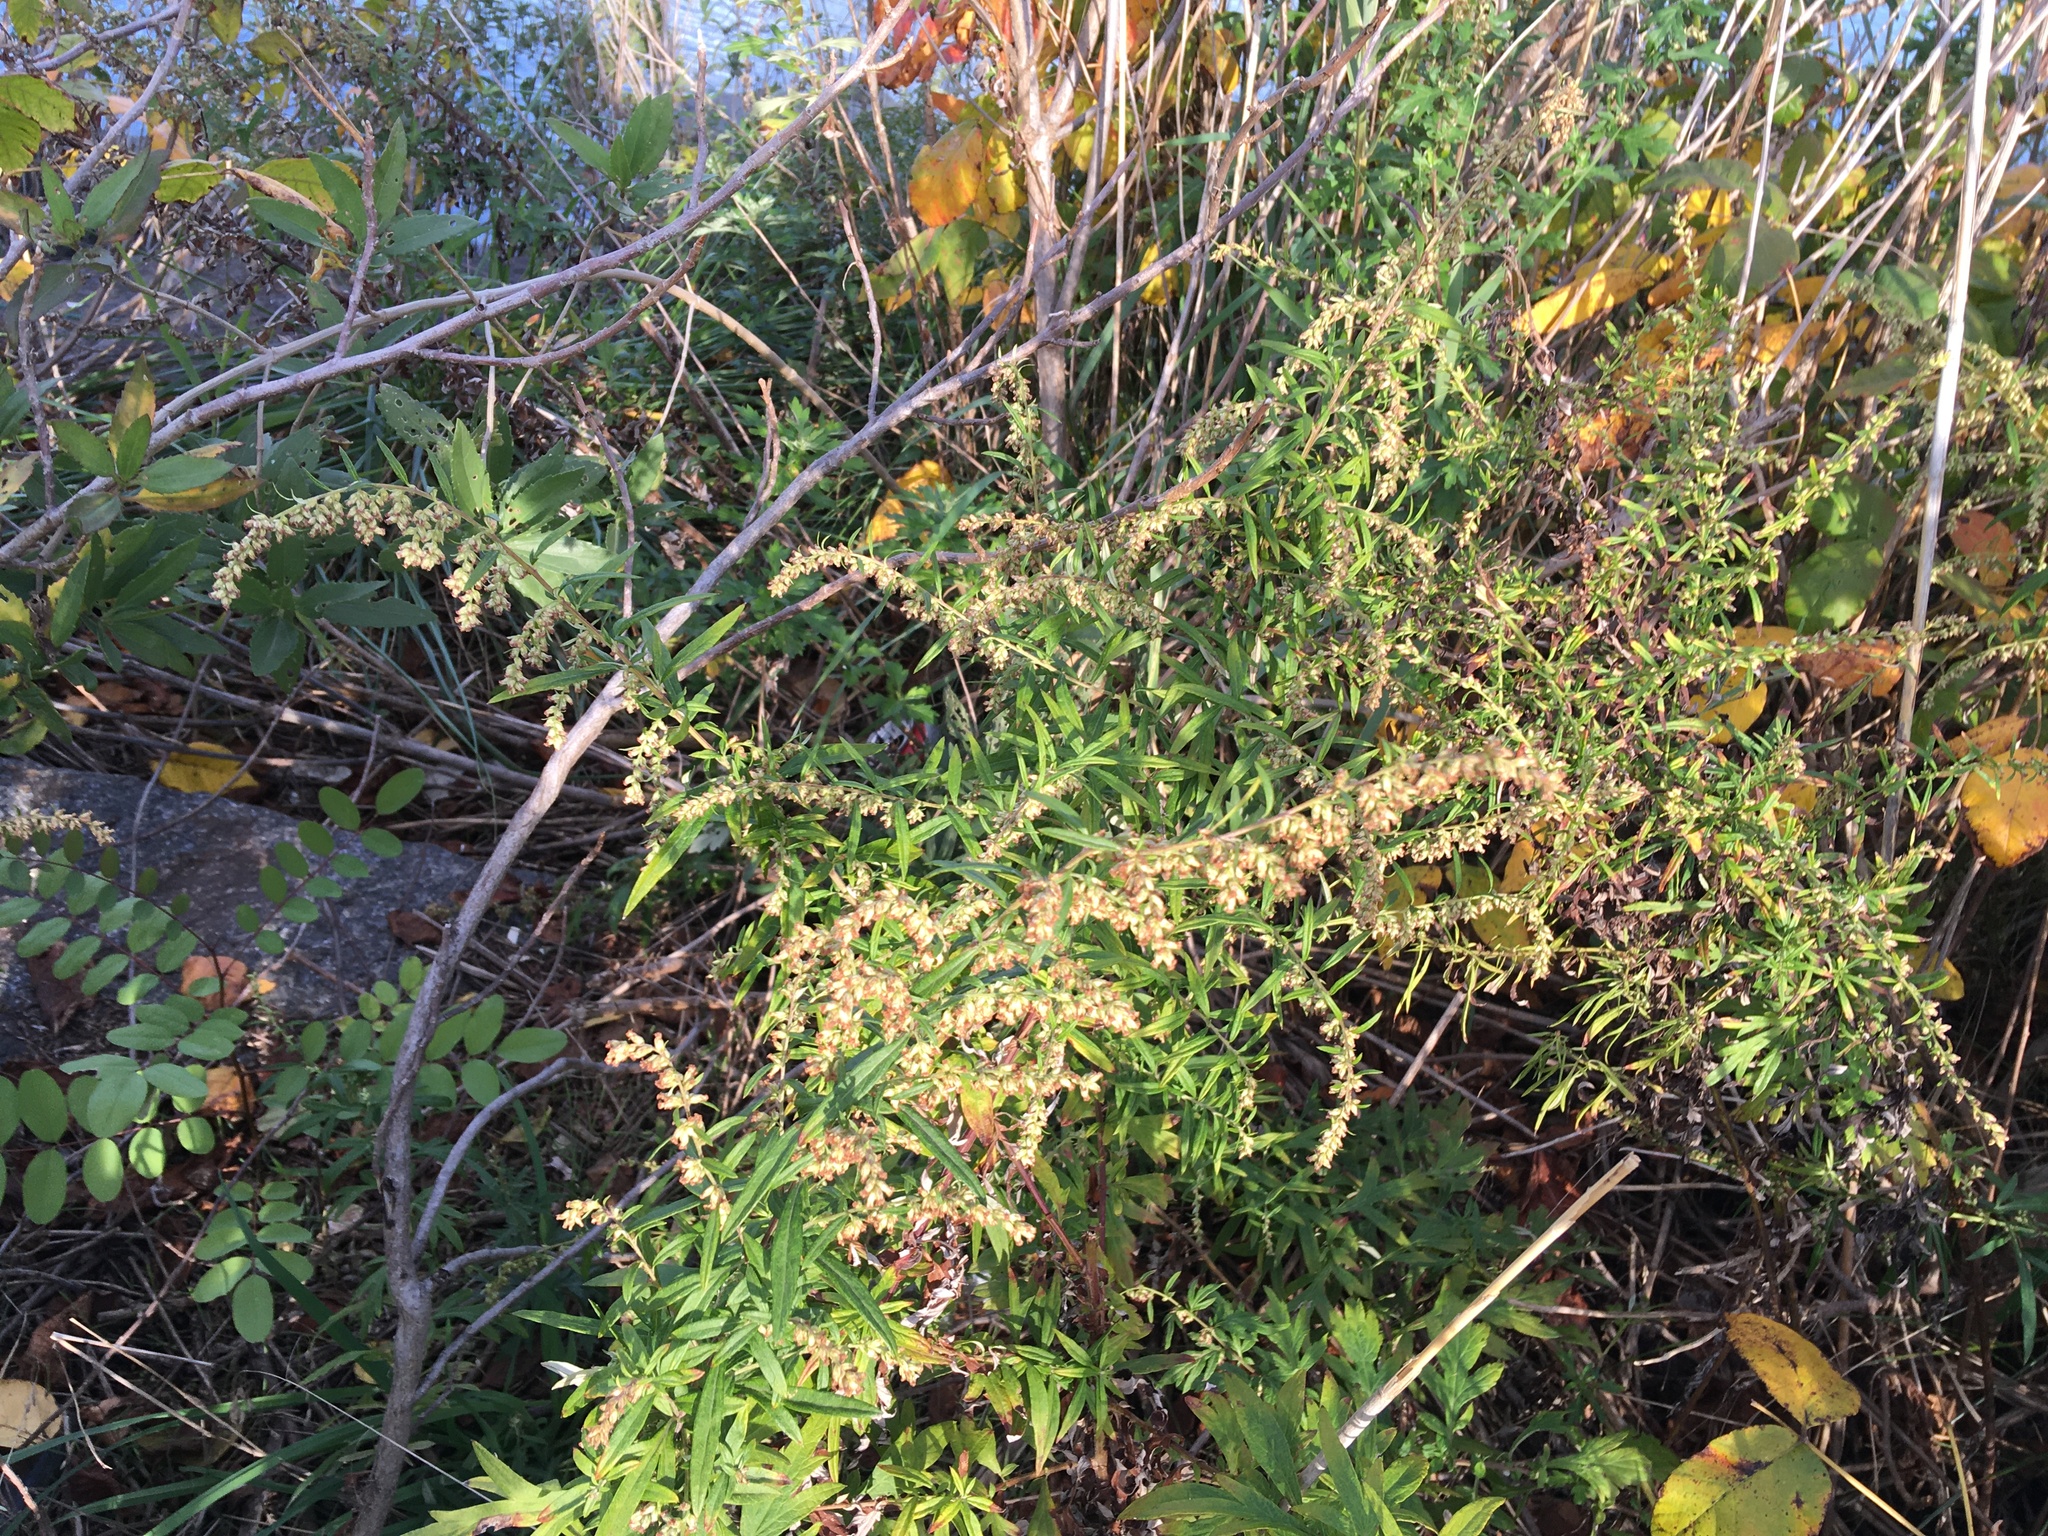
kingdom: Plantae
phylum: Tracheophyta
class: Magnoliopsida
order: Asterales
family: Asteraceae
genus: Artemisia
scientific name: Artemisia vulgaris
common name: Mugwort
